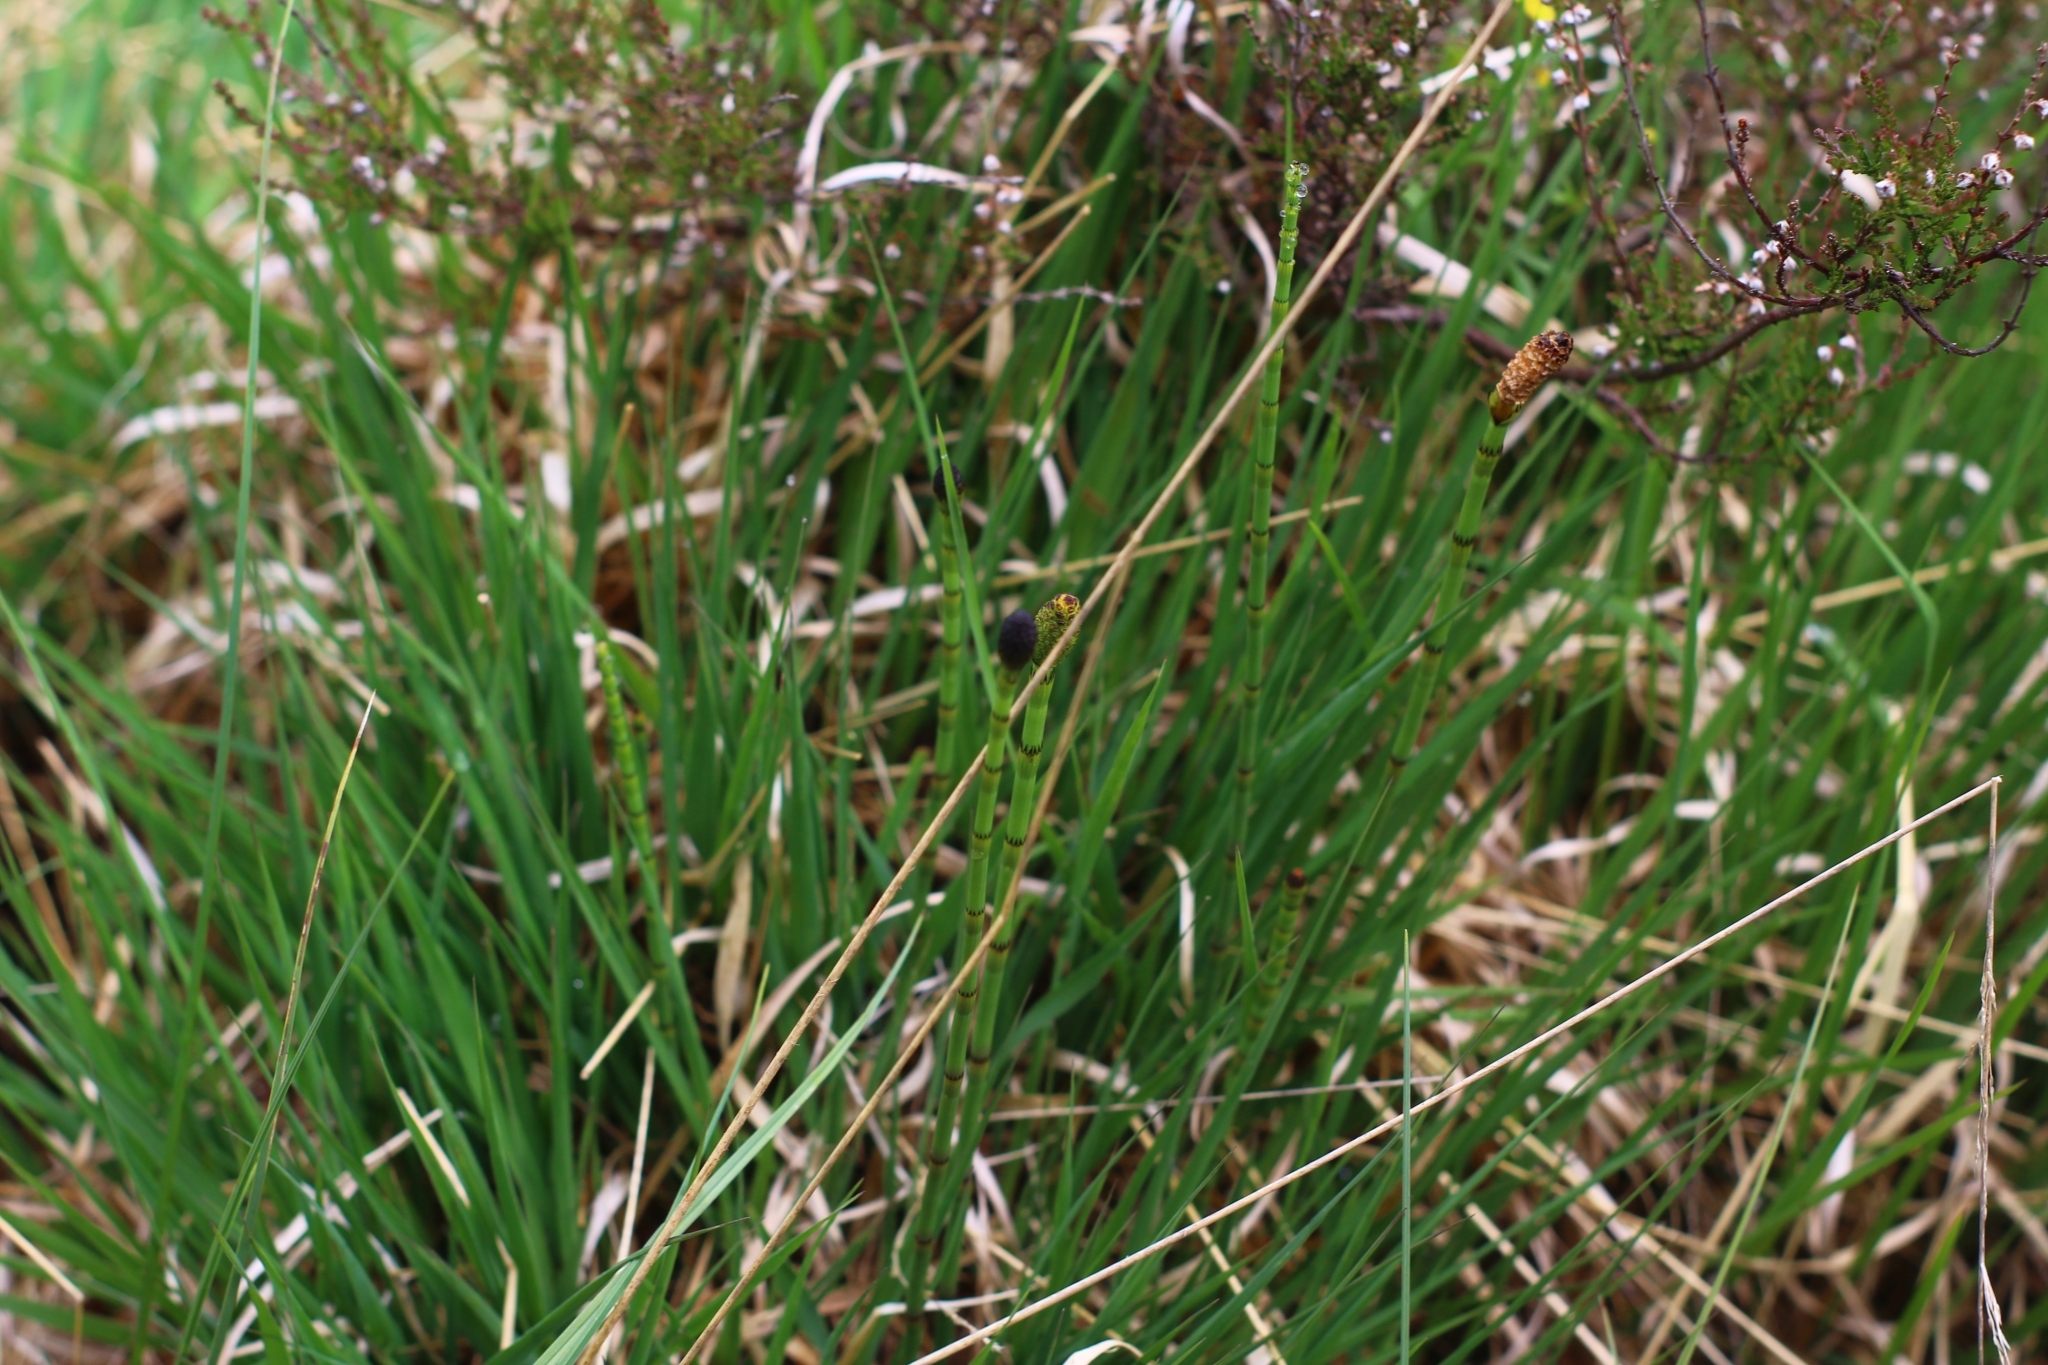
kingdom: Plantae
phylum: Tracheophyta
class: Polypodiopsida
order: Equisetales
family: Equisetaceae
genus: Equisetum
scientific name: Equisetum fluviatile
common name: Water horsetail
